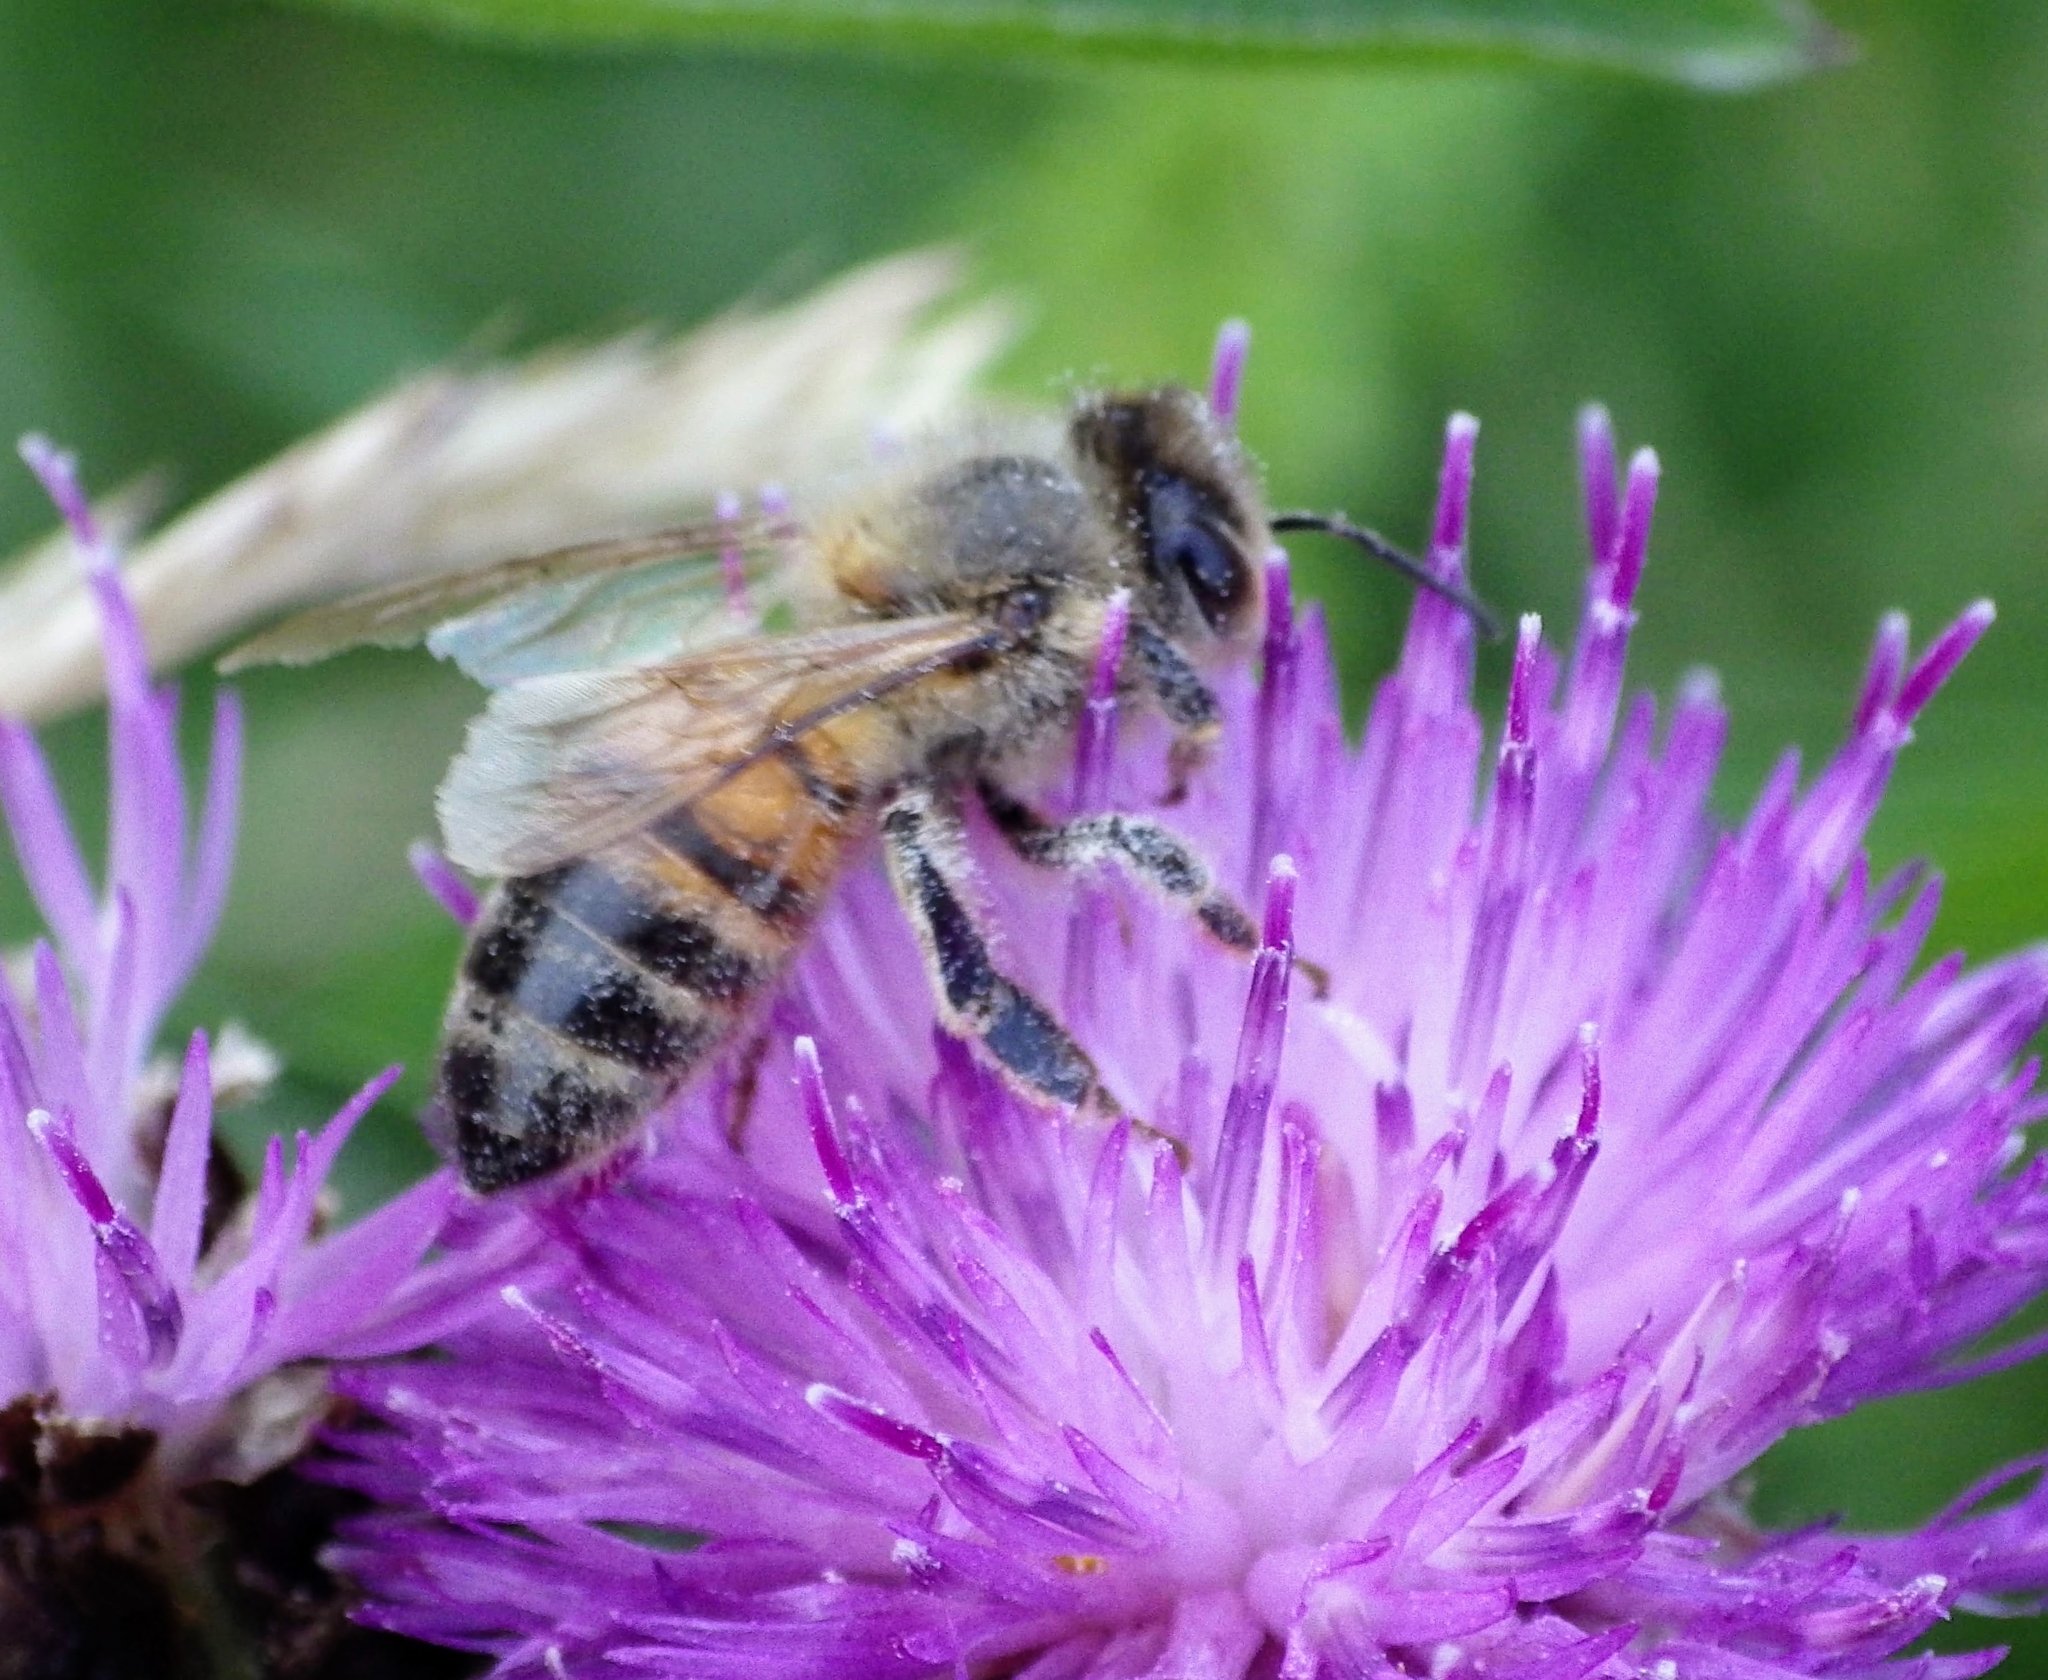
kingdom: Animalia
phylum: Arthropoda
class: Insecta
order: Hymenoptera
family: Apidae
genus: Apis
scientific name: Apis mellifera
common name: Honey bee
